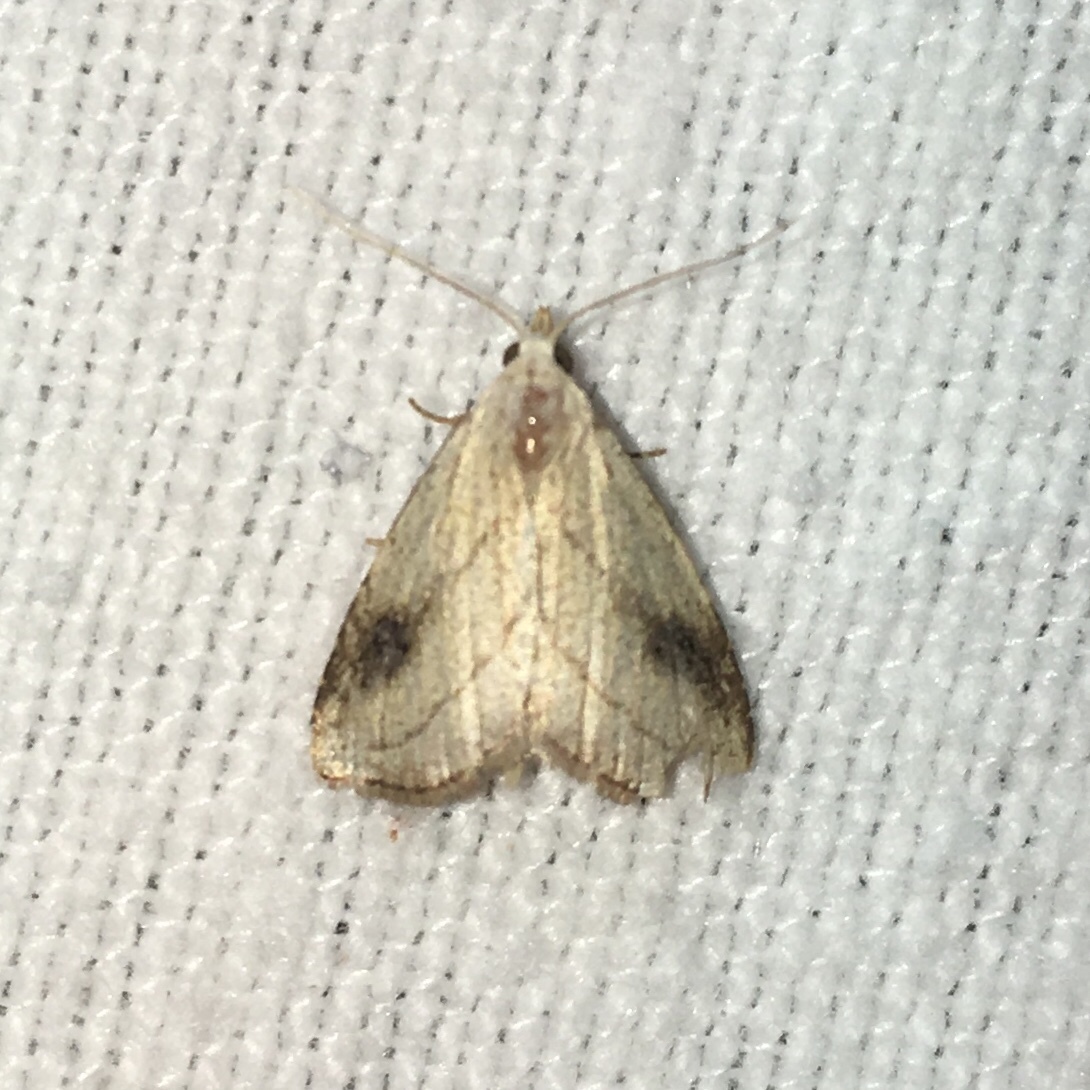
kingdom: Animalia
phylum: Arthropoda
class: Insecta
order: Lepidoptera
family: Erebidae
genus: Rivula
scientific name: Rivula propinqualis
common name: Spotted grass moth
